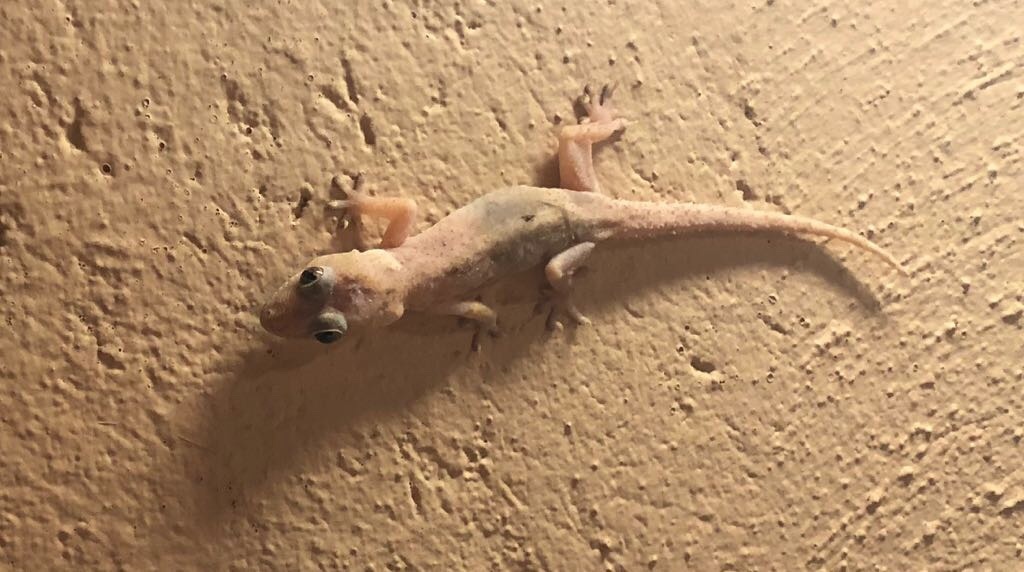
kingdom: Animalia
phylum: Chordata
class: Squamata
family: Gekkonidae
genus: Hemidactylus
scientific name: Hemidactylus mabouia
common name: House gecko
